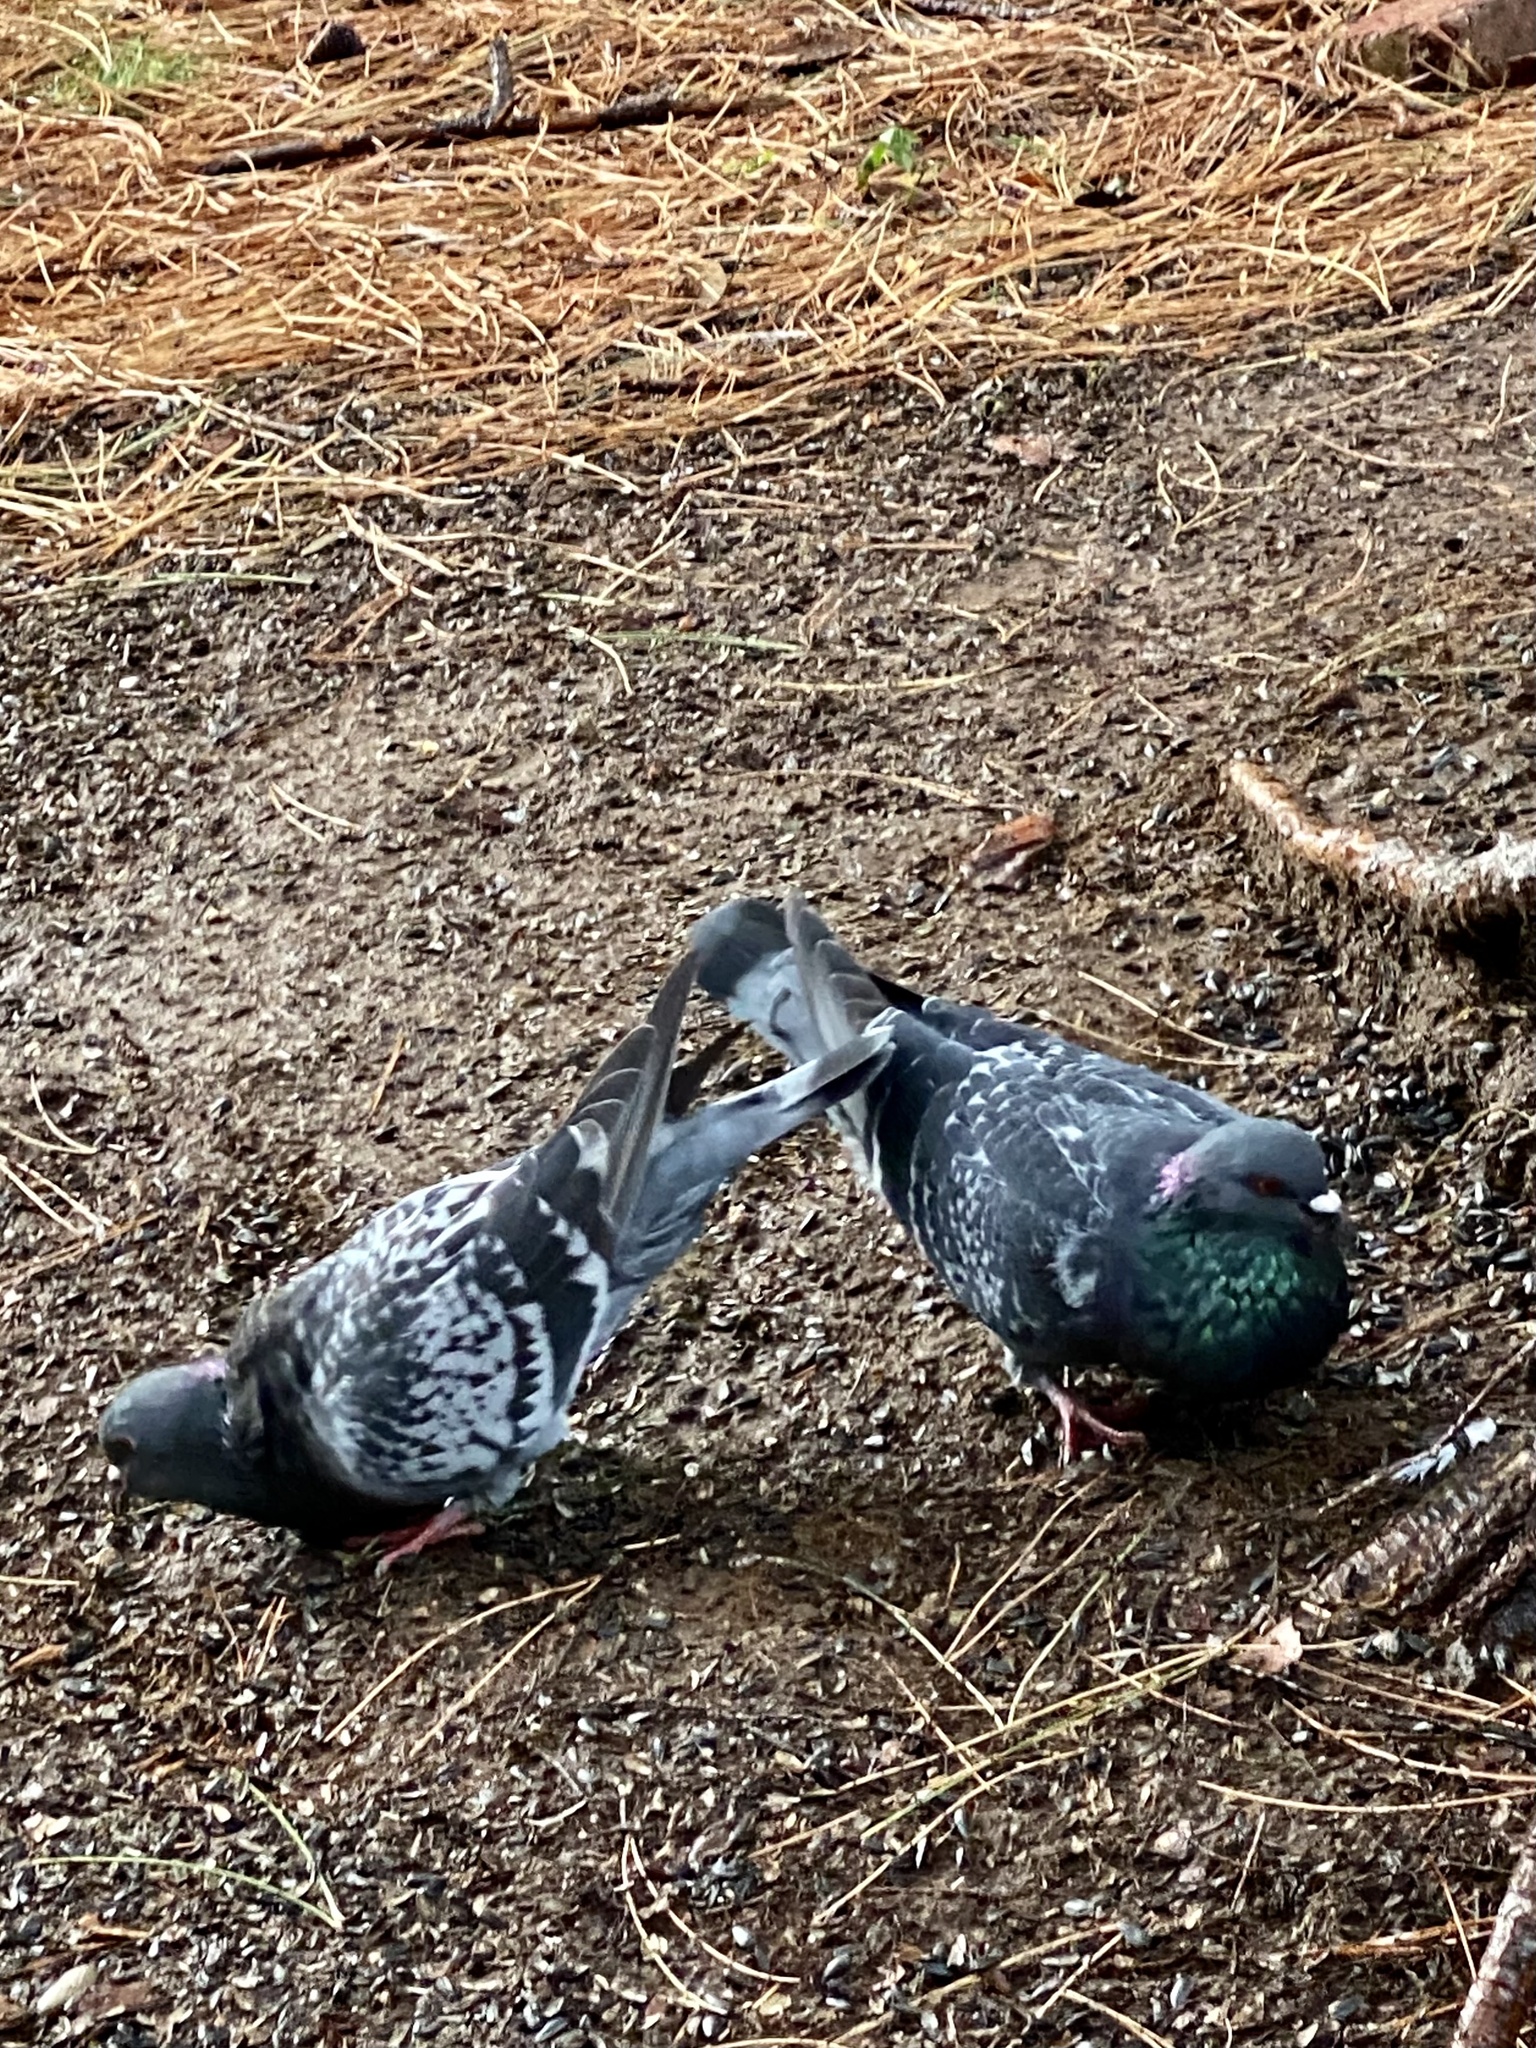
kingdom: Animalia
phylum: Chordata
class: Aves
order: Columbiformes
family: Columbidae
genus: Columba
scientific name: Columba livia
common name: Rock pigeon
